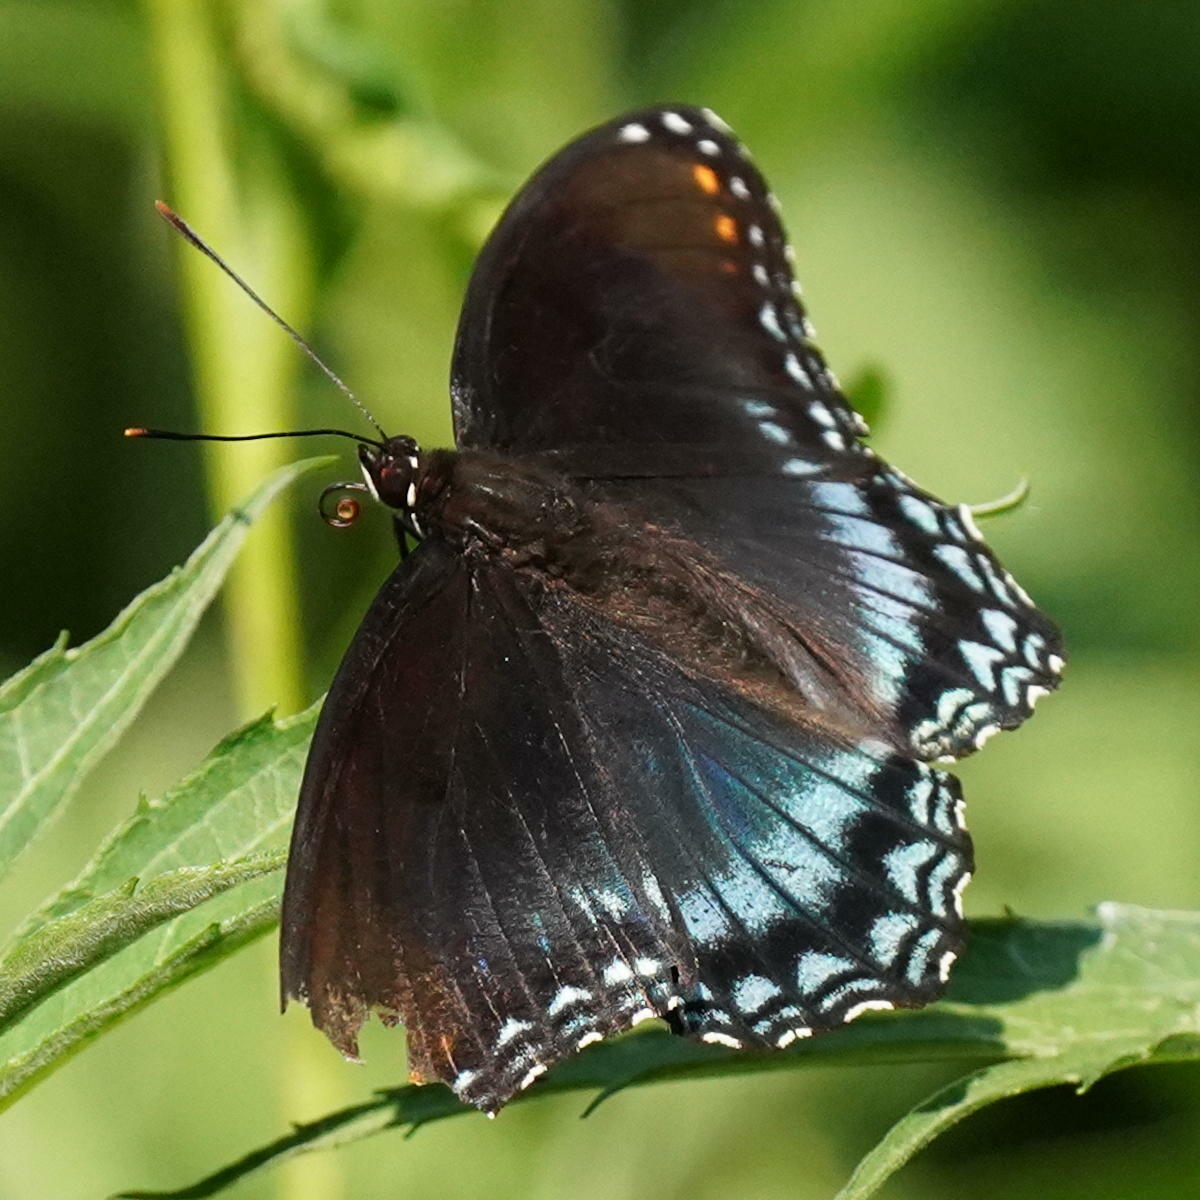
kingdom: Animalia
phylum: Arthropoda
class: Insecta
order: Lepidoptera
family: Nymphalidae
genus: Limenitis
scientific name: Limenitis arthemis
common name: Red-spotted admiral
